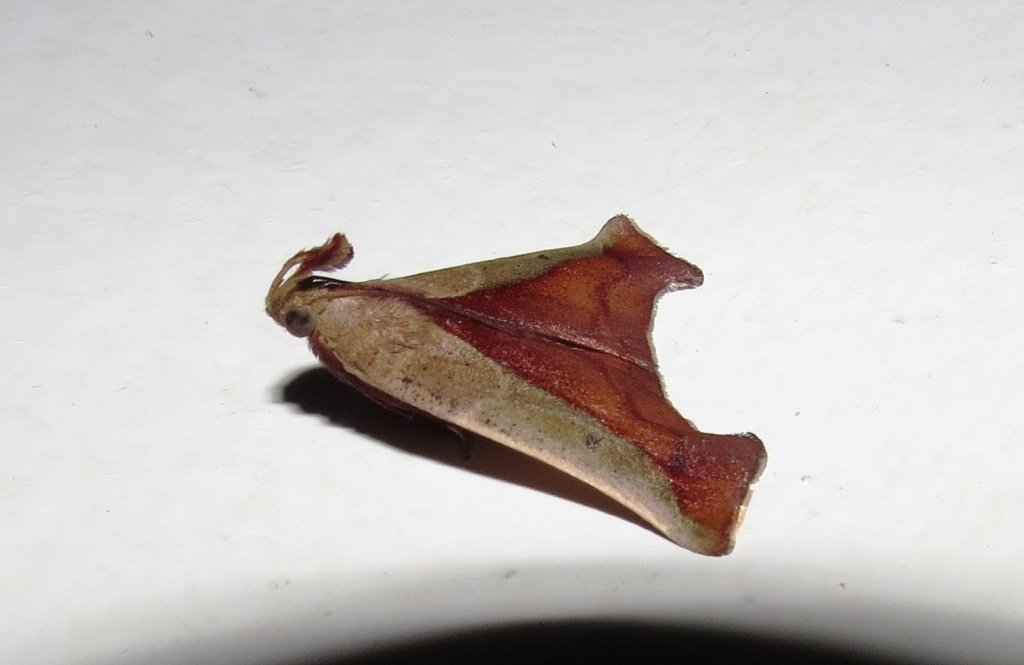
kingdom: Animalia
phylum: Arthropoda
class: Insecta
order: Lepidoptera
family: Pyralidae
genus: Arbinia
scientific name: Arbinia todilla
